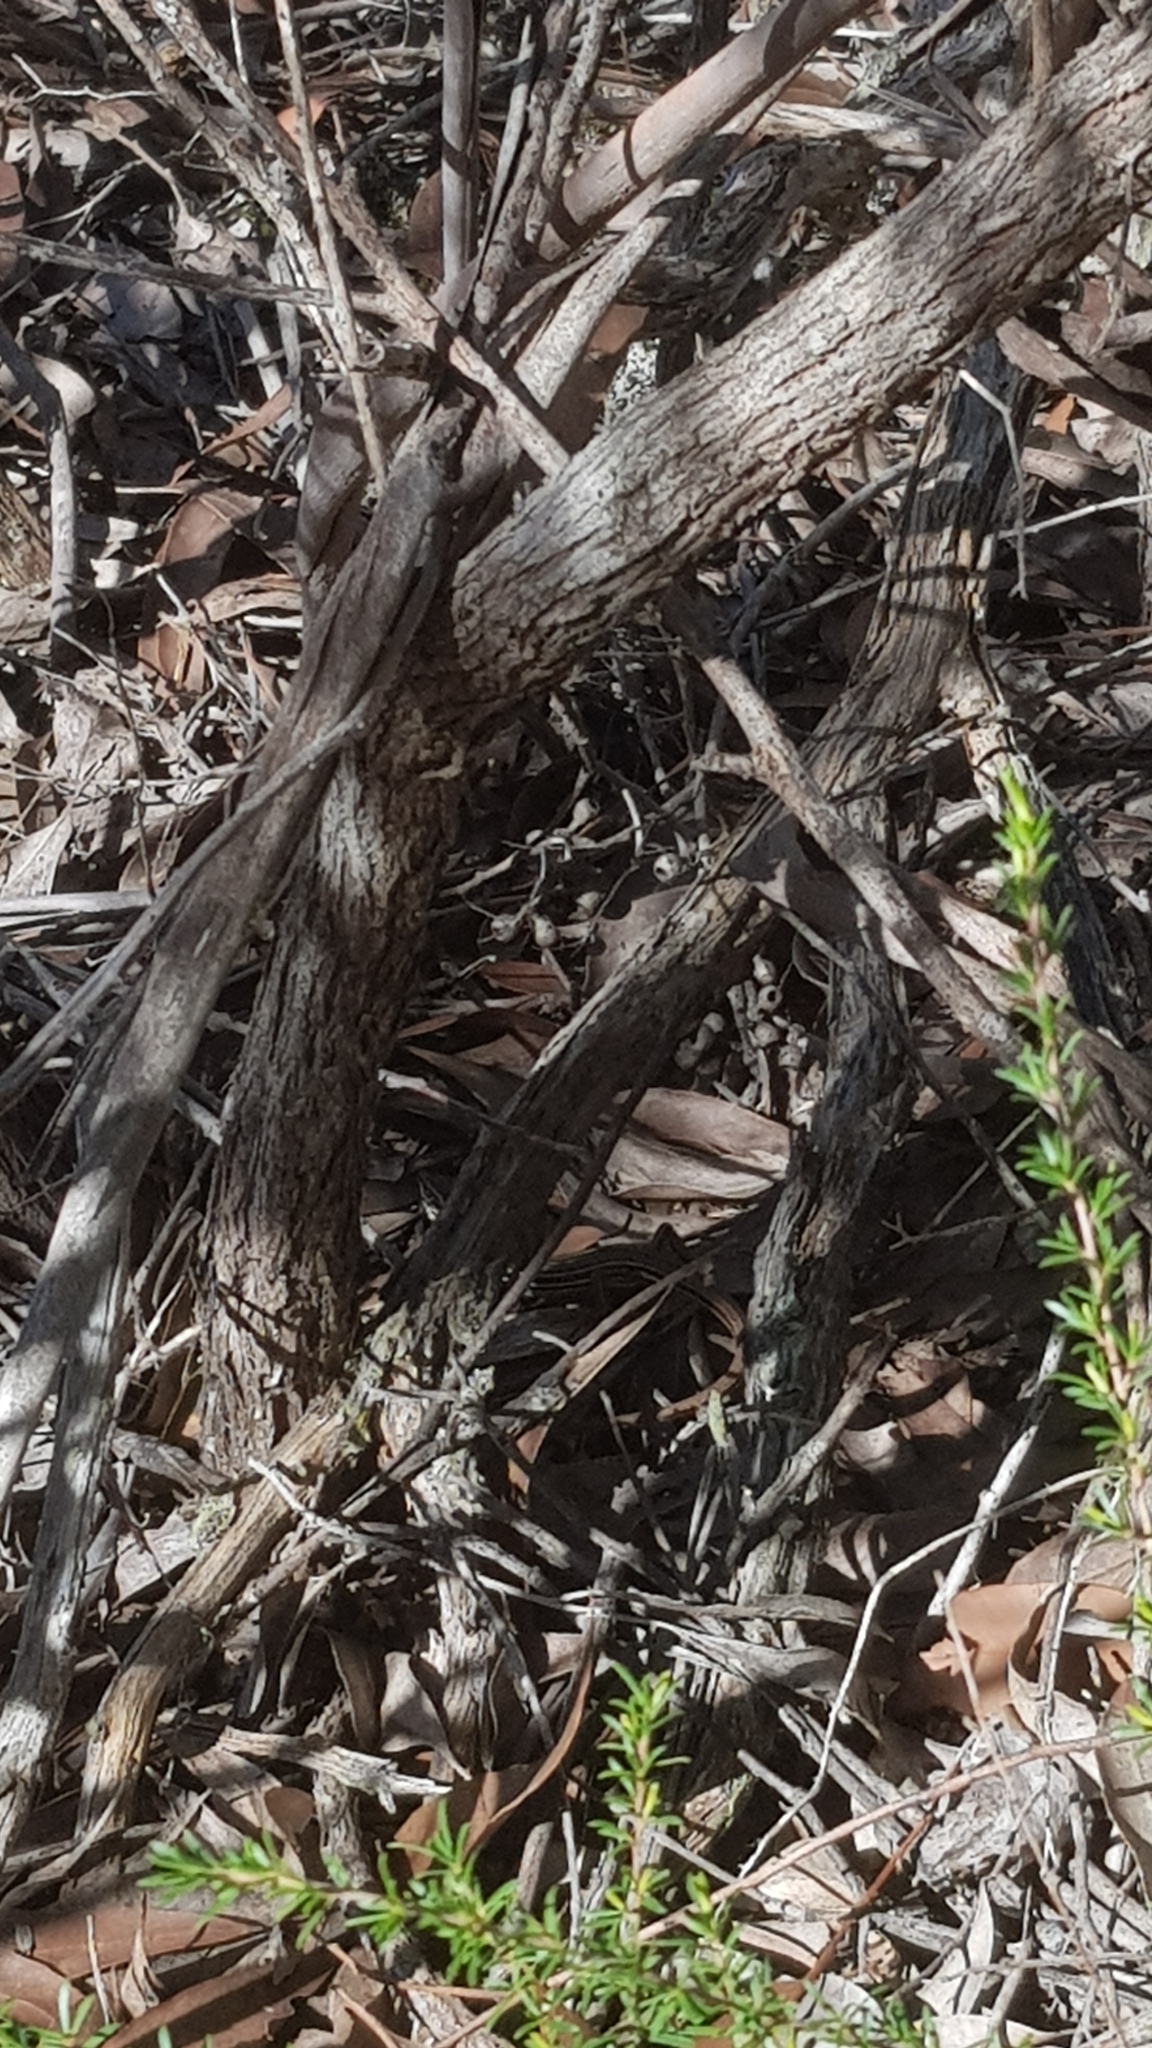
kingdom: Animalia
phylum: Chordata
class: Squamata
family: Scincidae
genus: Ctenotus
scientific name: Ctenotus taeniolatus
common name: Copper-tailed skink
